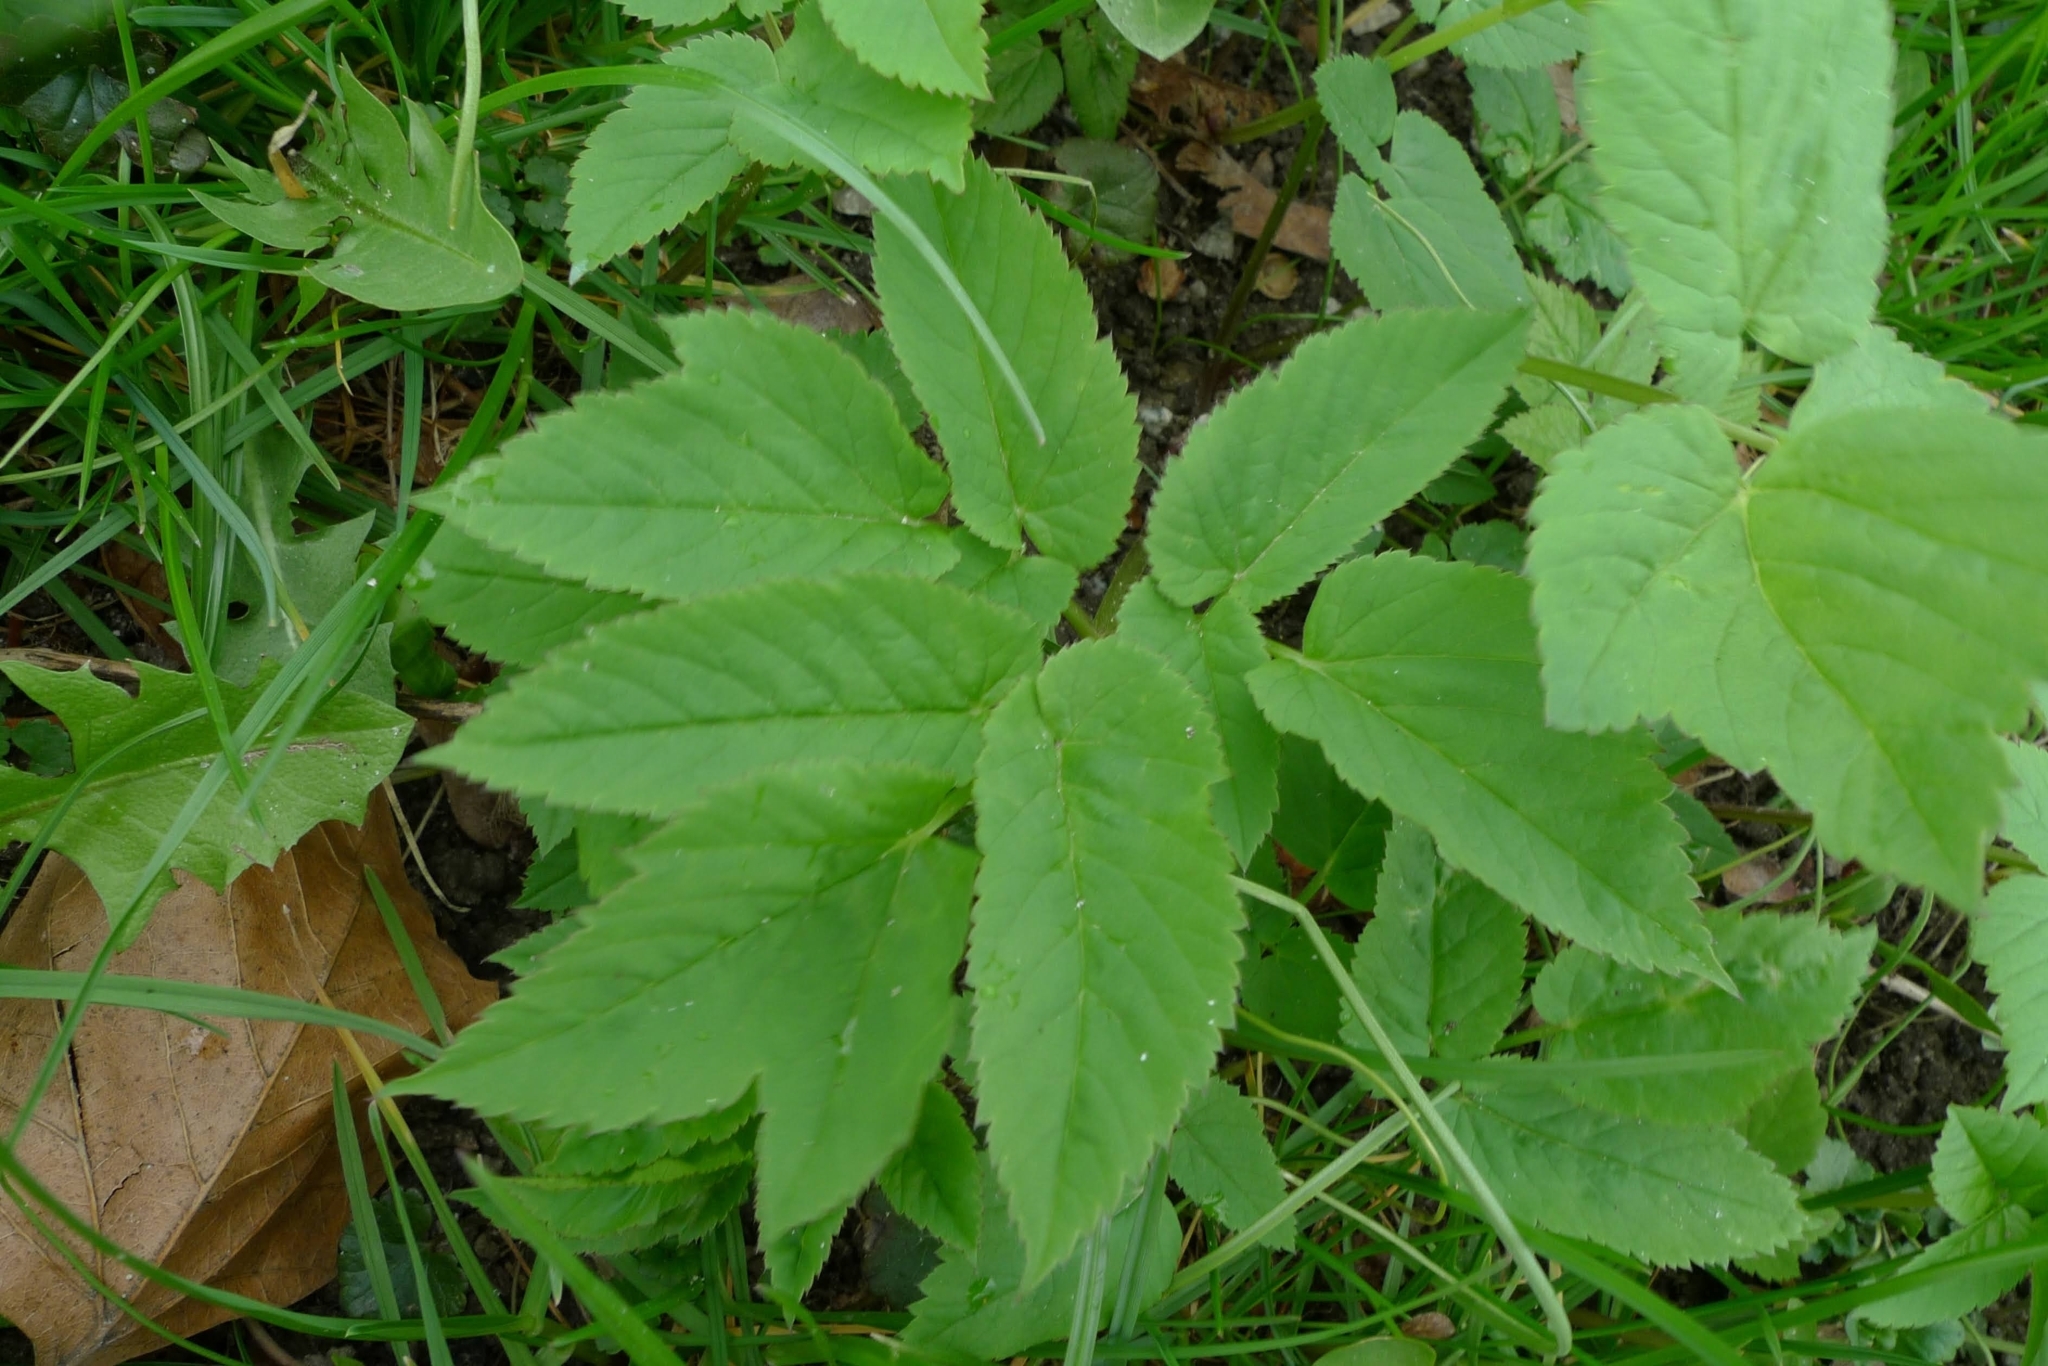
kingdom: Plantae
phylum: Tracheophyta
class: Magnoliopsida
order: Apiales
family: Apiaceae
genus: Aegopodium
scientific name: Aegopodium podagraria
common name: Ground-elder
